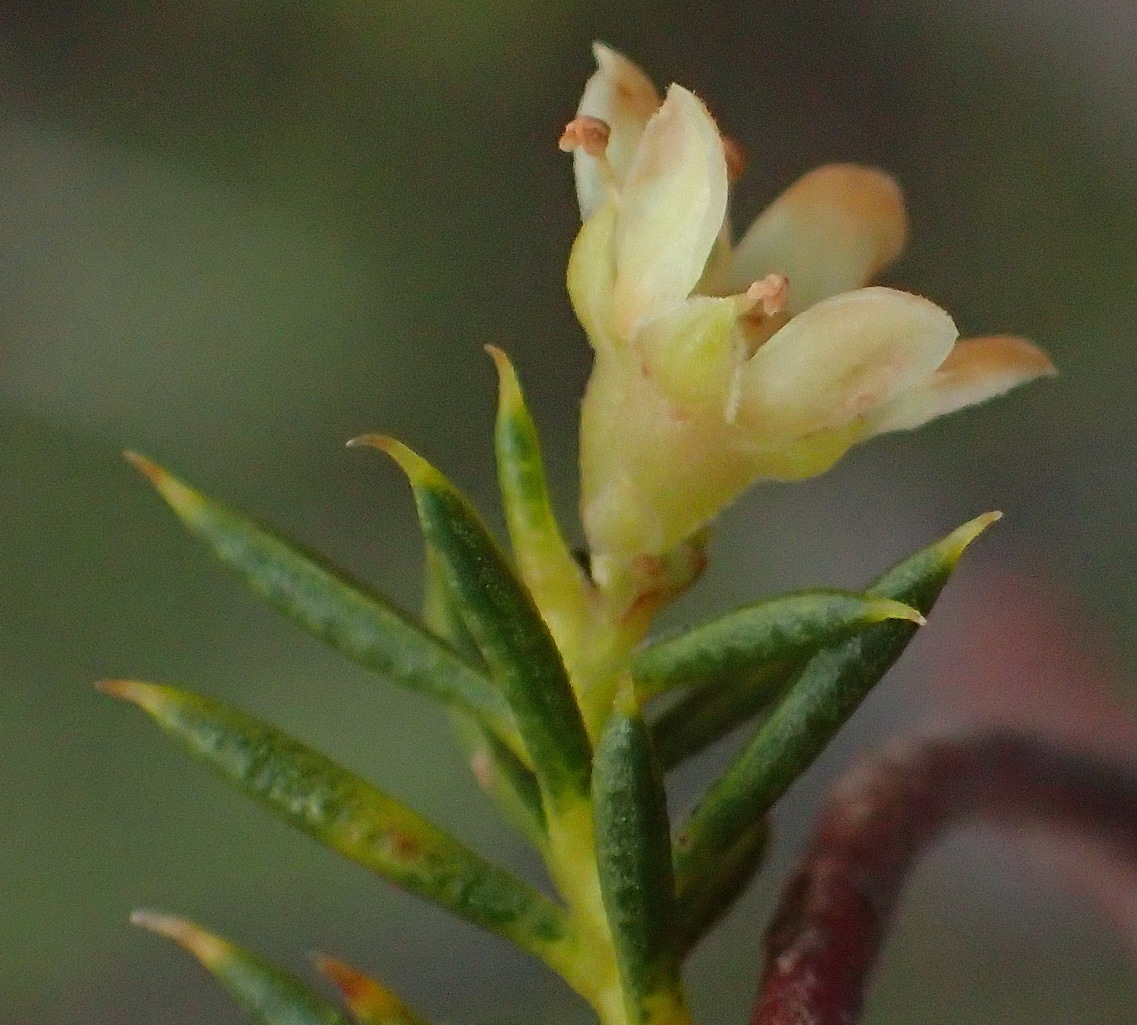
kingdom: Plantae
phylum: Tracheophyta
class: Magnoliopsida
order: Sapindales
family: Rutaceae
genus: Diosma
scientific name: Diosma acmaeophylla
